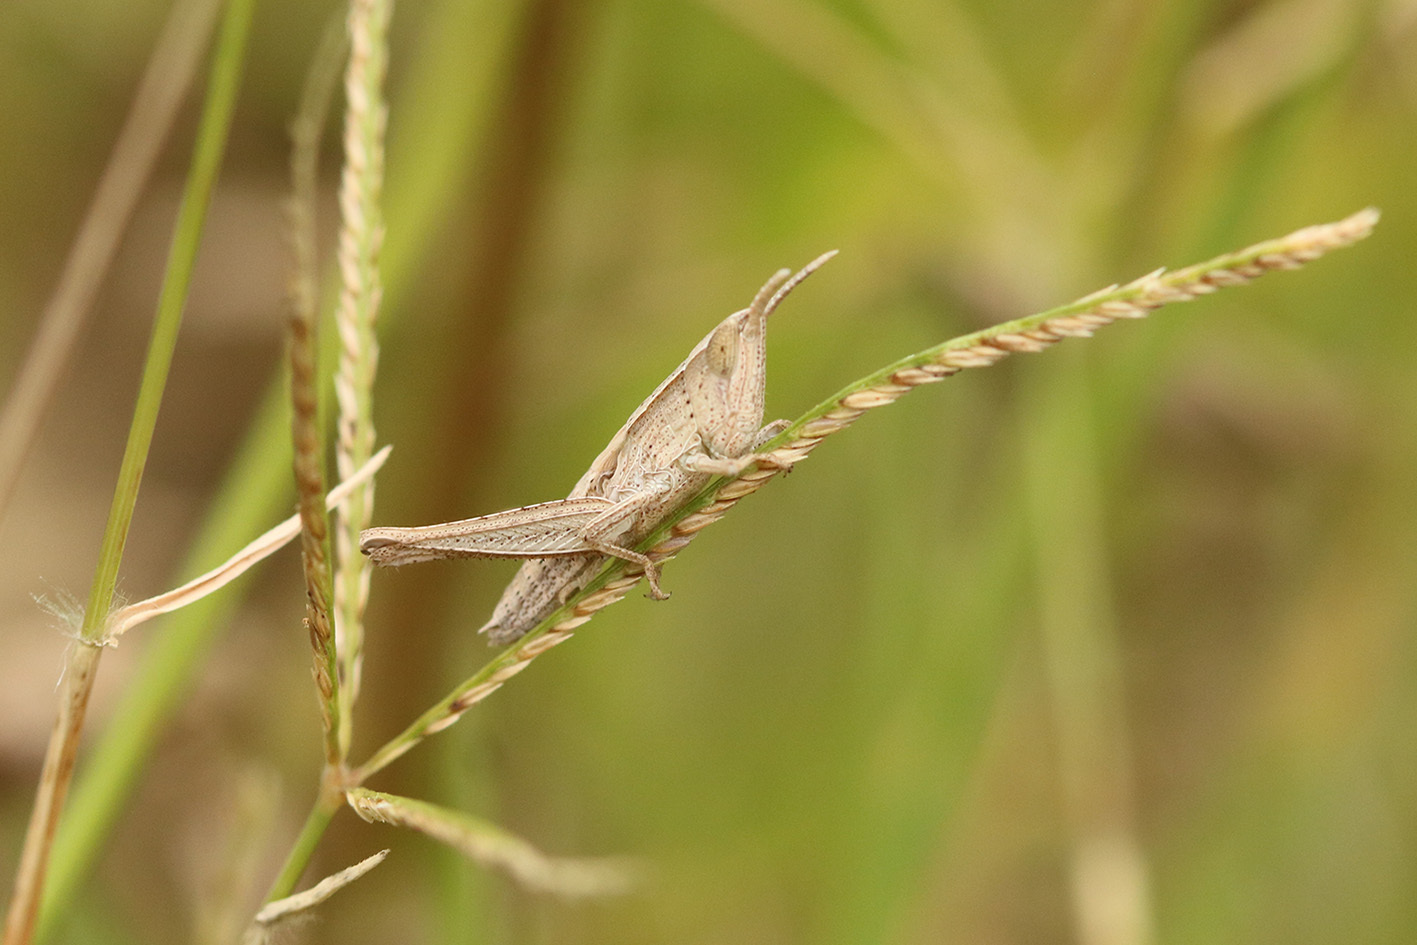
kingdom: Animalia
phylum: Arthropoda
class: Insecta
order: Orthoptera
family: Acrididae
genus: Laplatacris
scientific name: Laplatacris dispar
